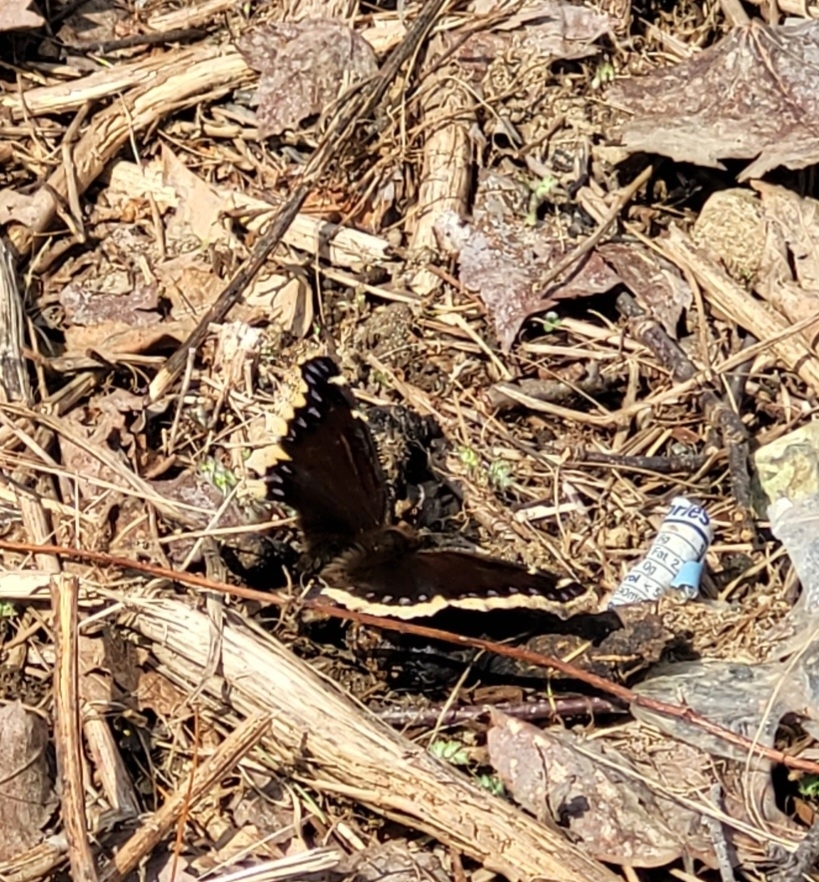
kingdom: Animalia
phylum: Arthropoda
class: Insecta
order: Lepidoptera
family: Nymphalidae
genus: Nymphalis
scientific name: Nymphalis antiopa
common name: Camberwell beauty
